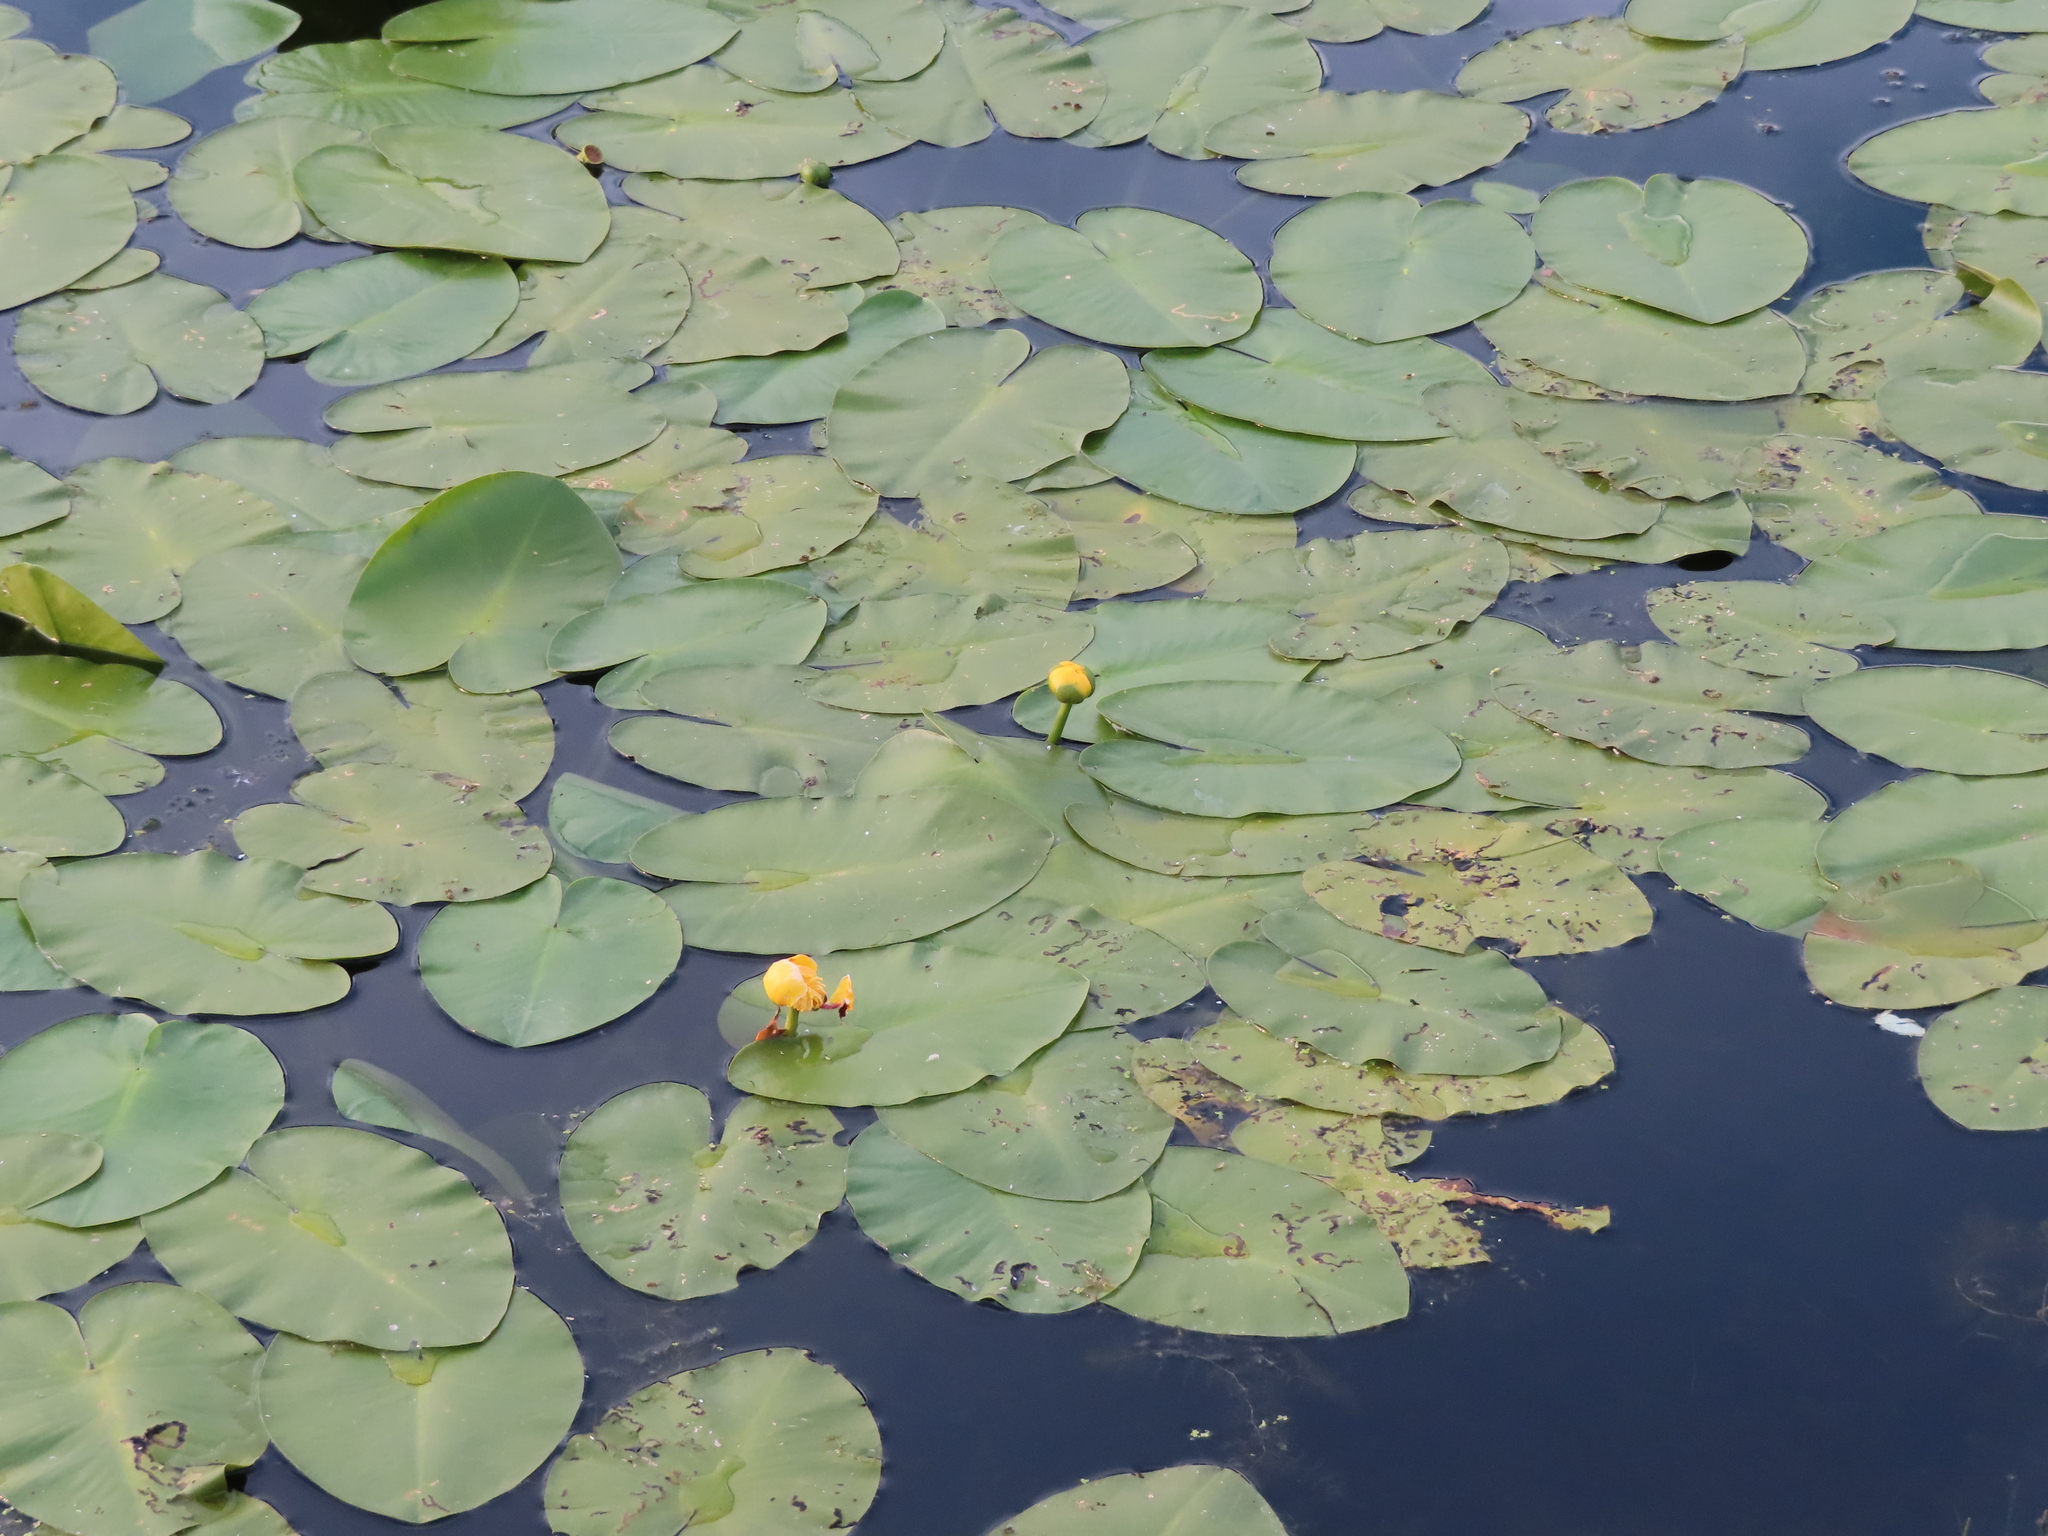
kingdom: Plantae
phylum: Tracheophyta
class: Magnoliopsida
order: Nymphaeales
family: Nymphaeaceae
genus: Nuphar
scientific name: Nuphar variegata
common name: Beaver-root
